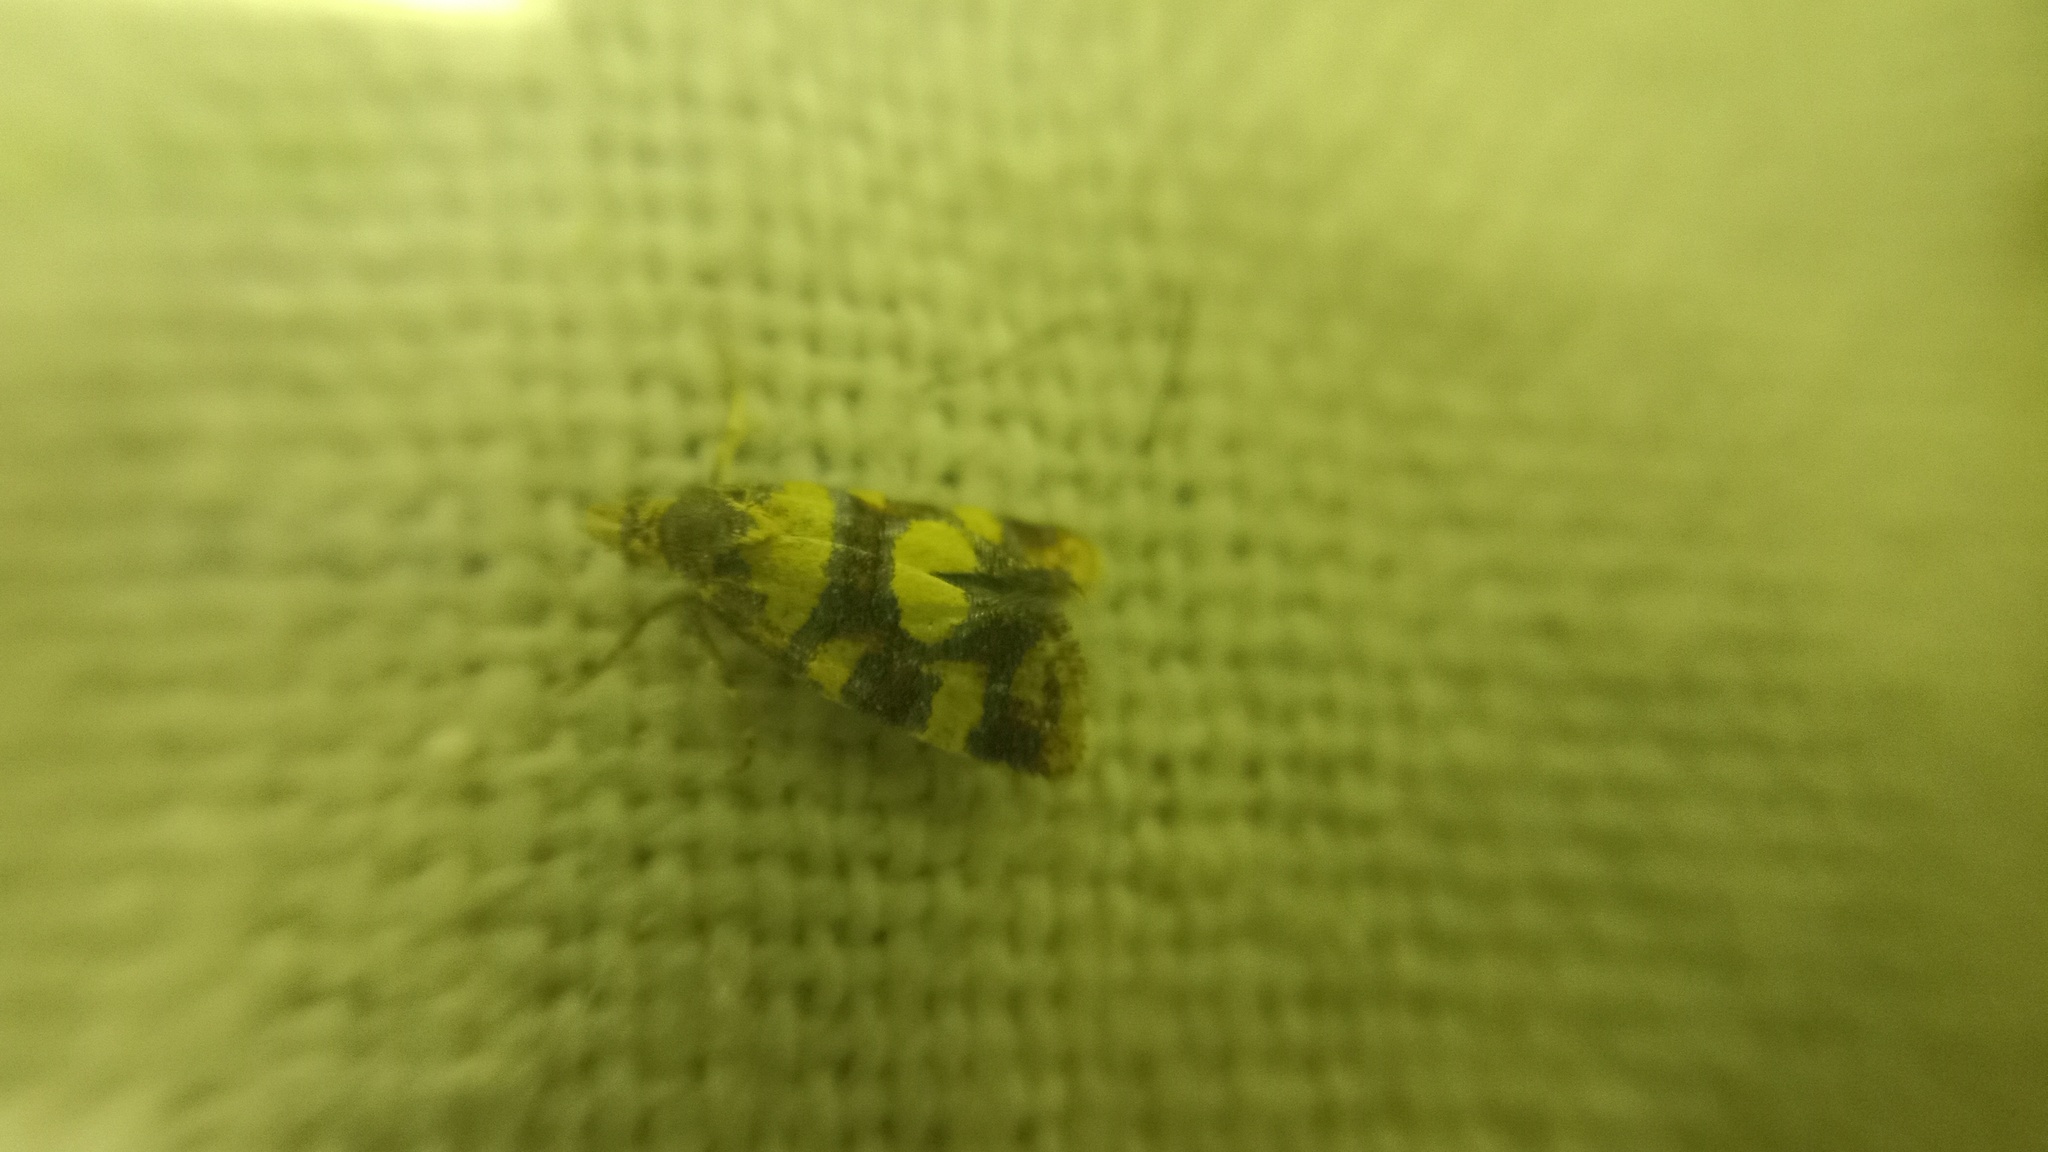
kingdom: Animalia
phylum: Arthropoda
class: Insecta
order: Lepidoptera
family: Tortricidae
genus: Aethes
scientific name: Aethes tesserana
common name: Downland conch
